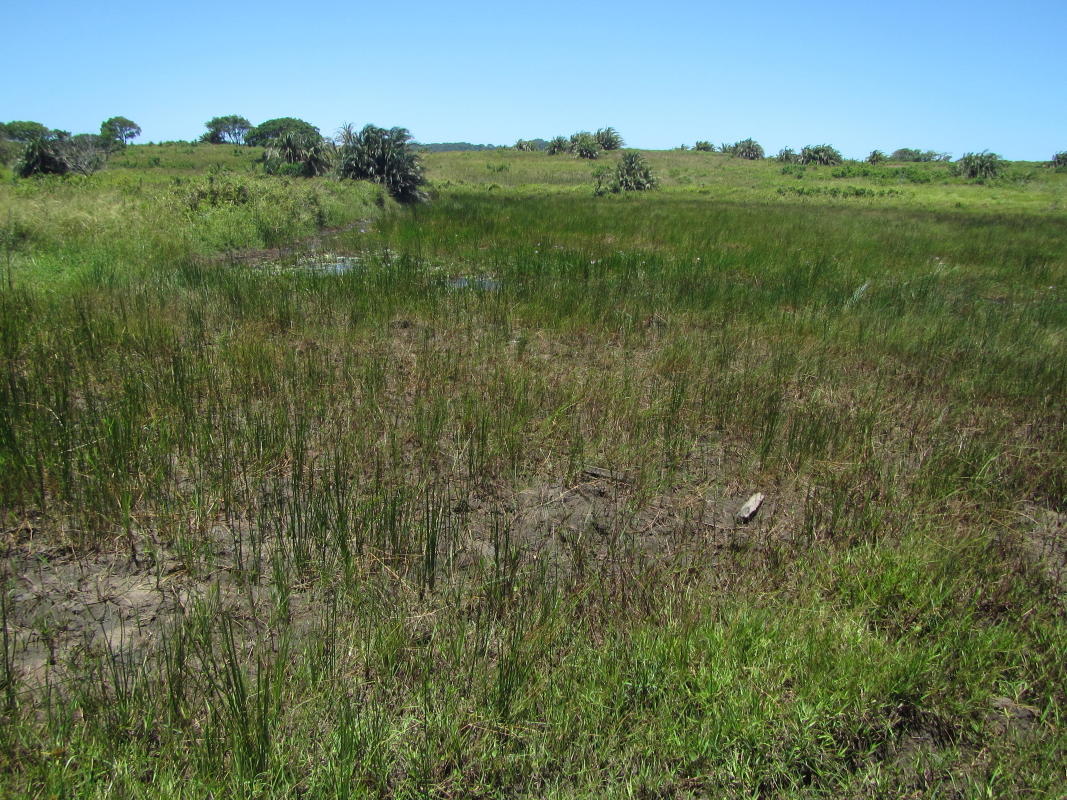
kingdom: Animalia
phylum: Arthropoda
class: Insecta
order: Odonata
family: Coenagrionidae
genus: Ceriagrion
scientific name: Ceriagrion glabrum
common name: Common pond damsel
